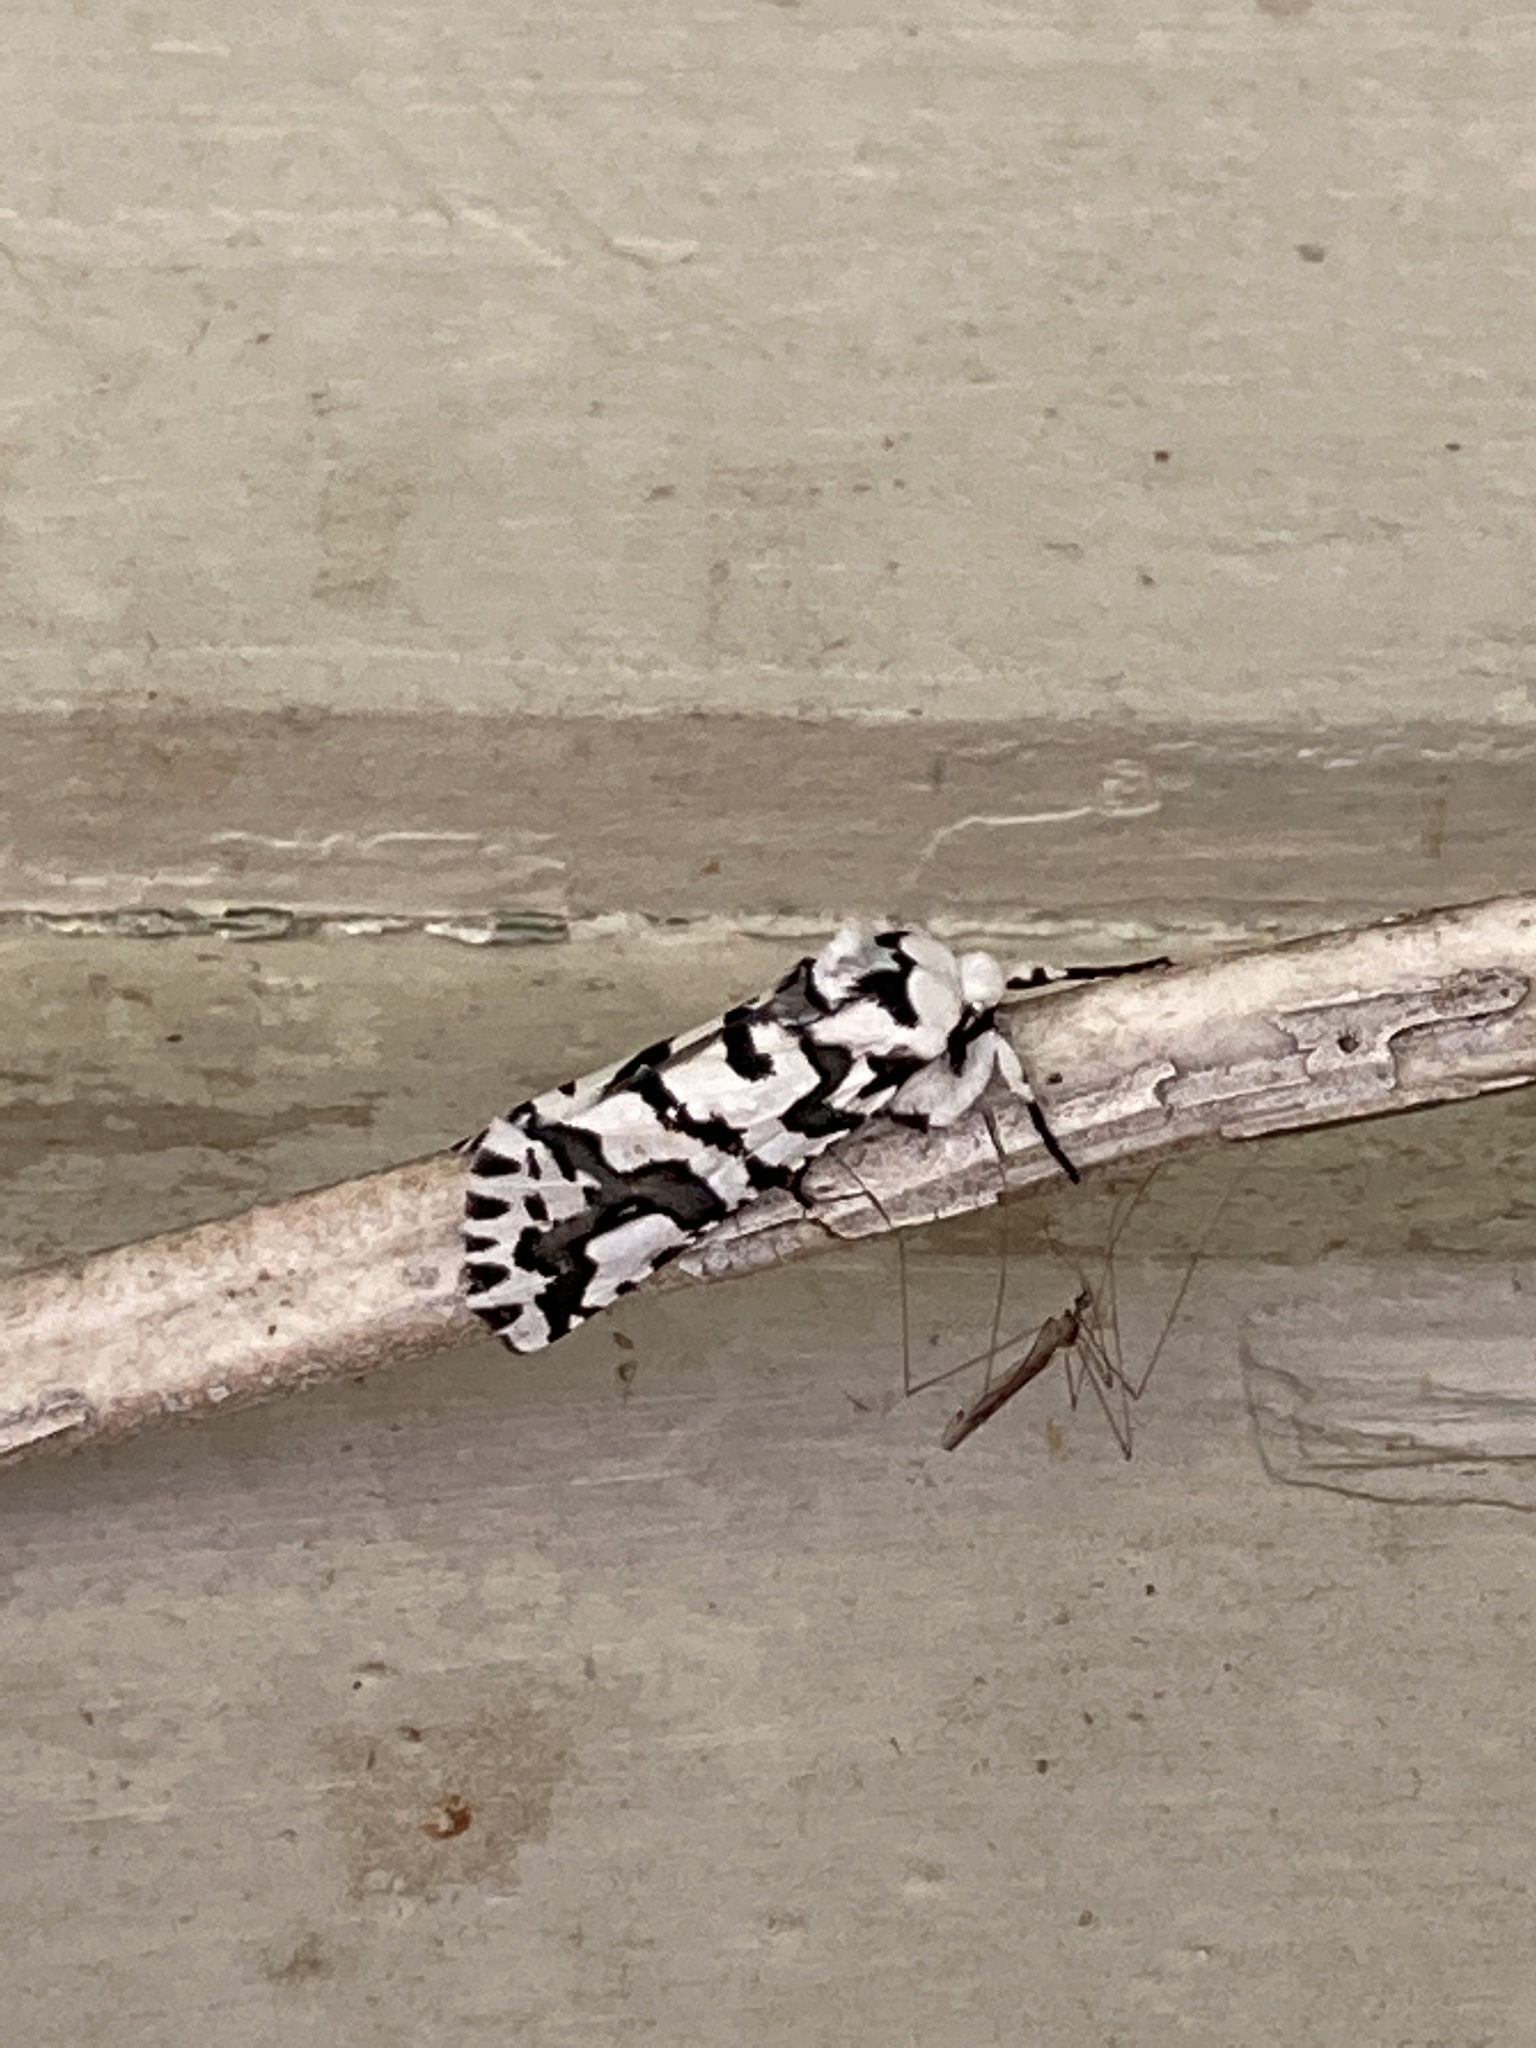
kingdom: Animalia
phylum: Arthropoda
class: Insecta
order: Lepidoptera
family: Geometridae
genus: Declana
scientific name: Declana
